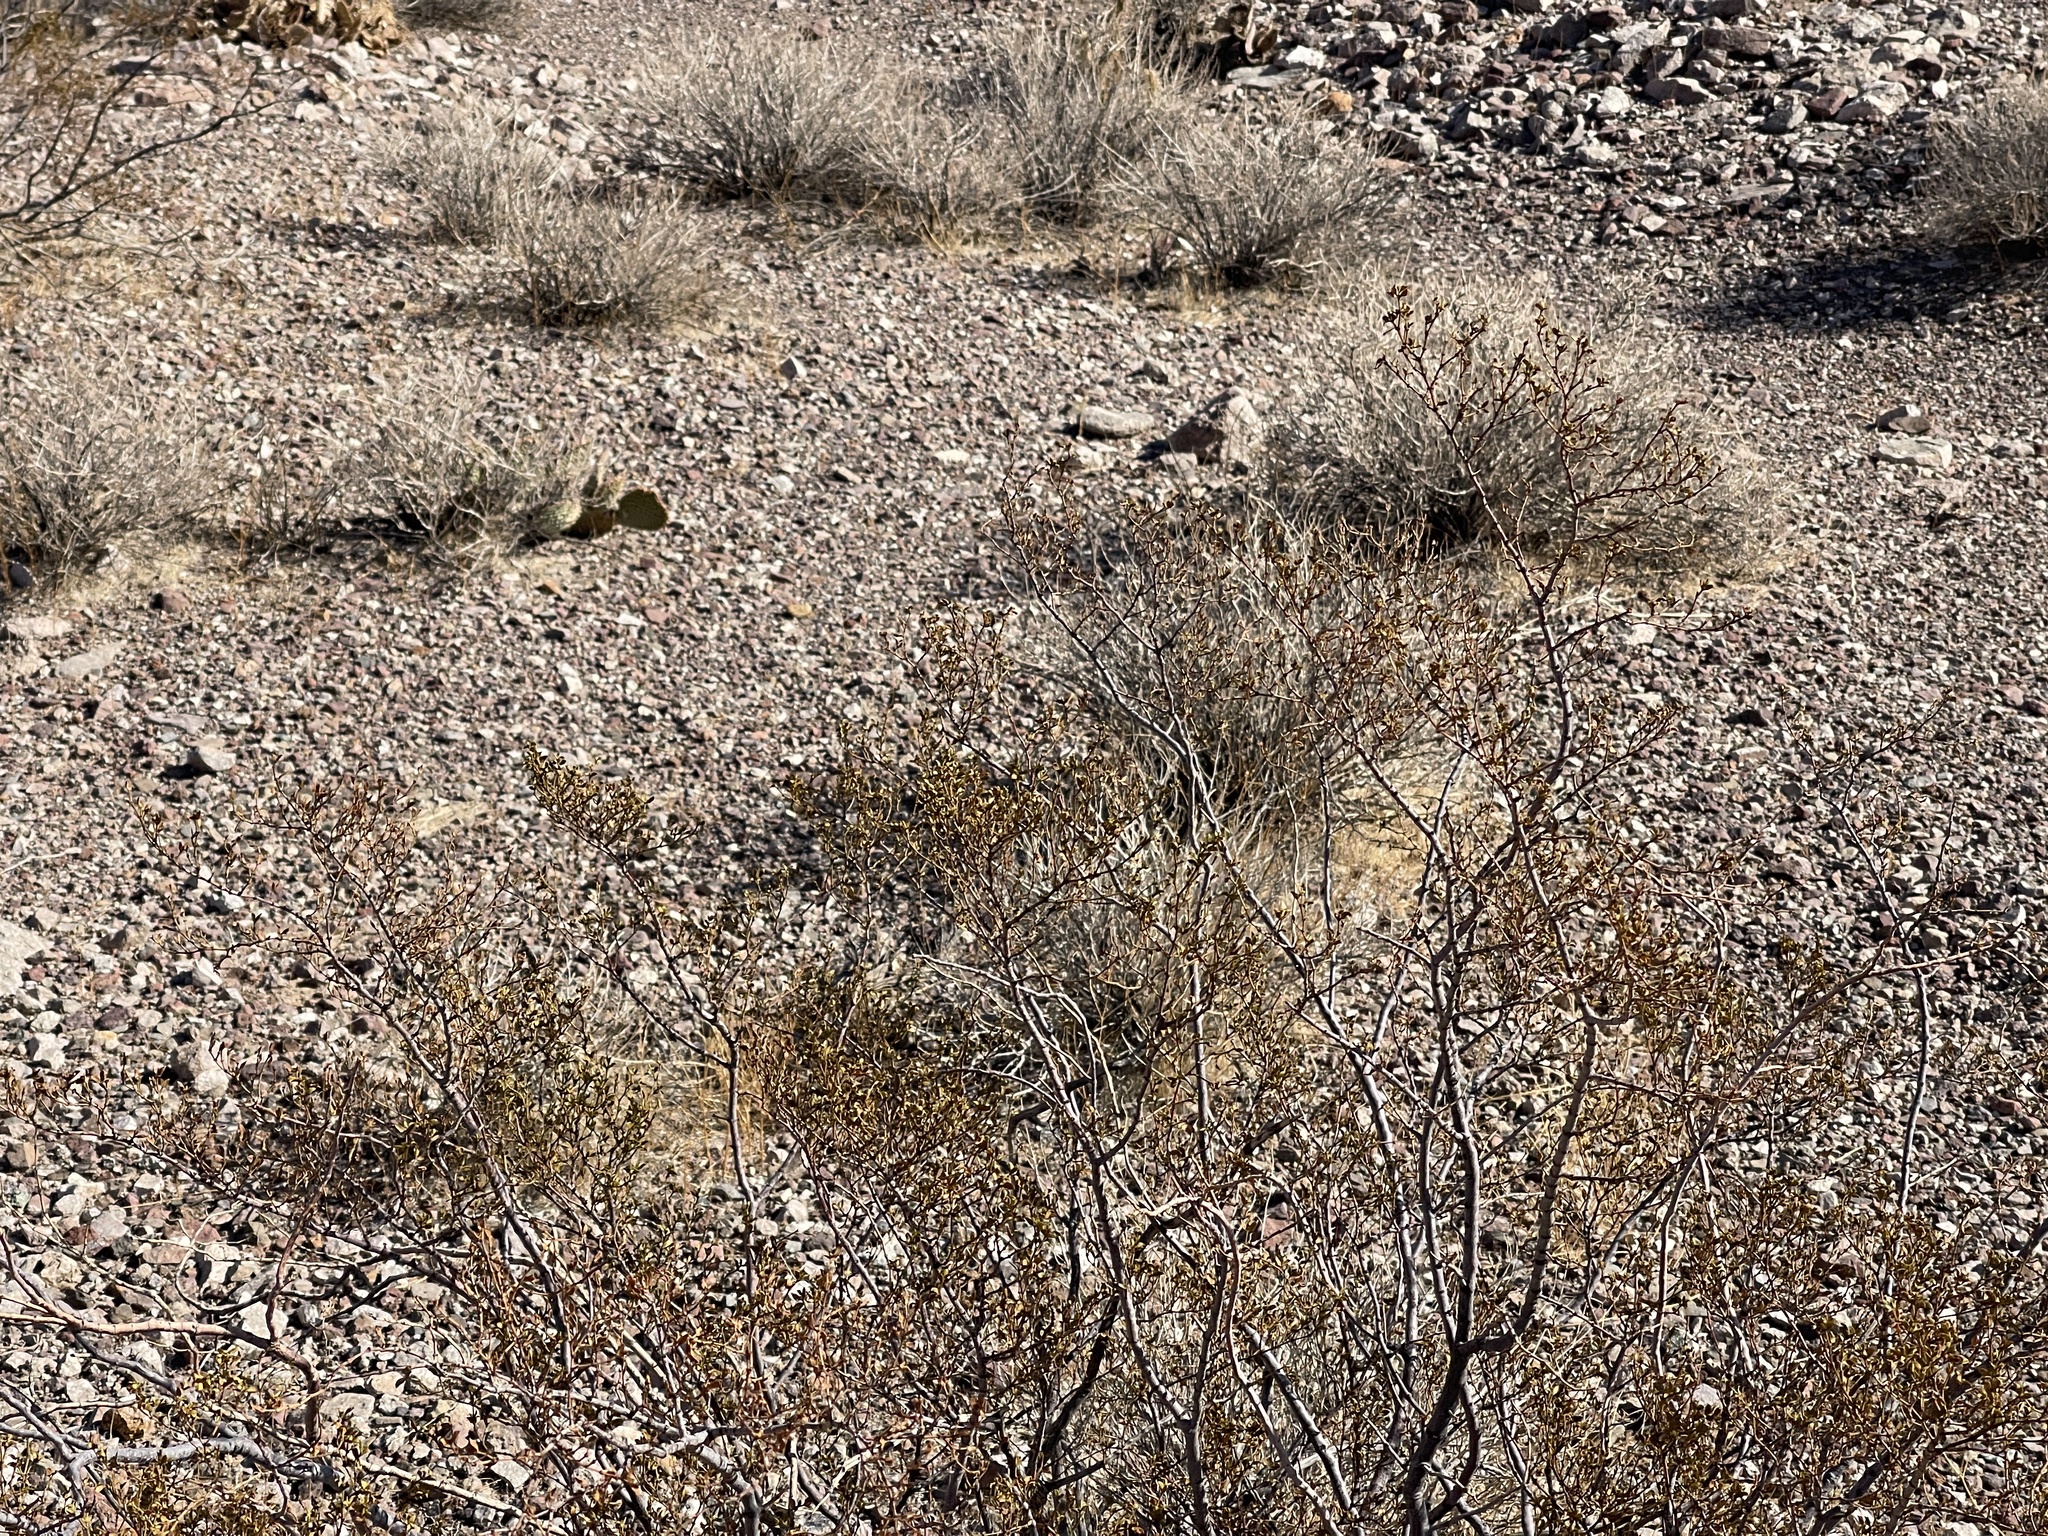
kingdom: Plantae
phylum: Tracheophyta
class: Magnoliopsida
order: Zygophyllales
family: Zygophyllaceae
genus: Larrea
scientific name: Larrea tridentata
